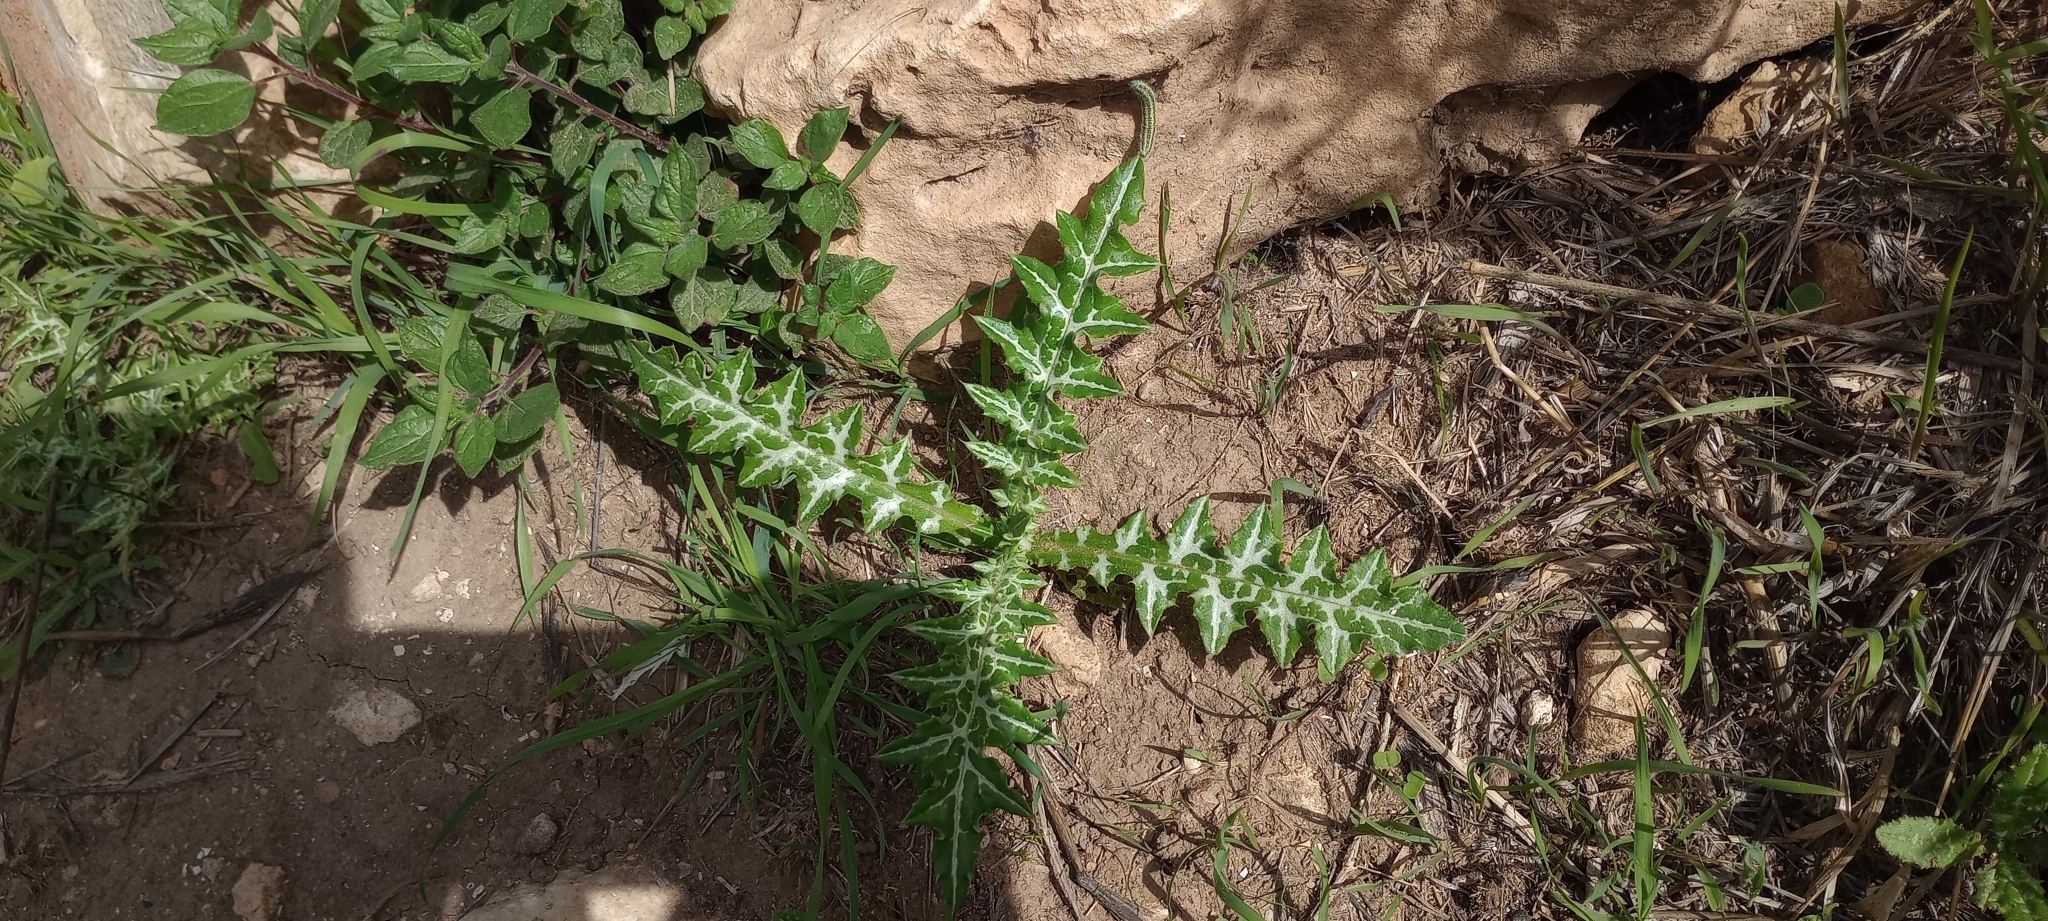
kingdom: Plantae
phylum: Tracheophyta
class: Magnoliopsida
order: Asterales
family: Asteraceae
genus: Galactites
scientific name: Galactites tomentosa
